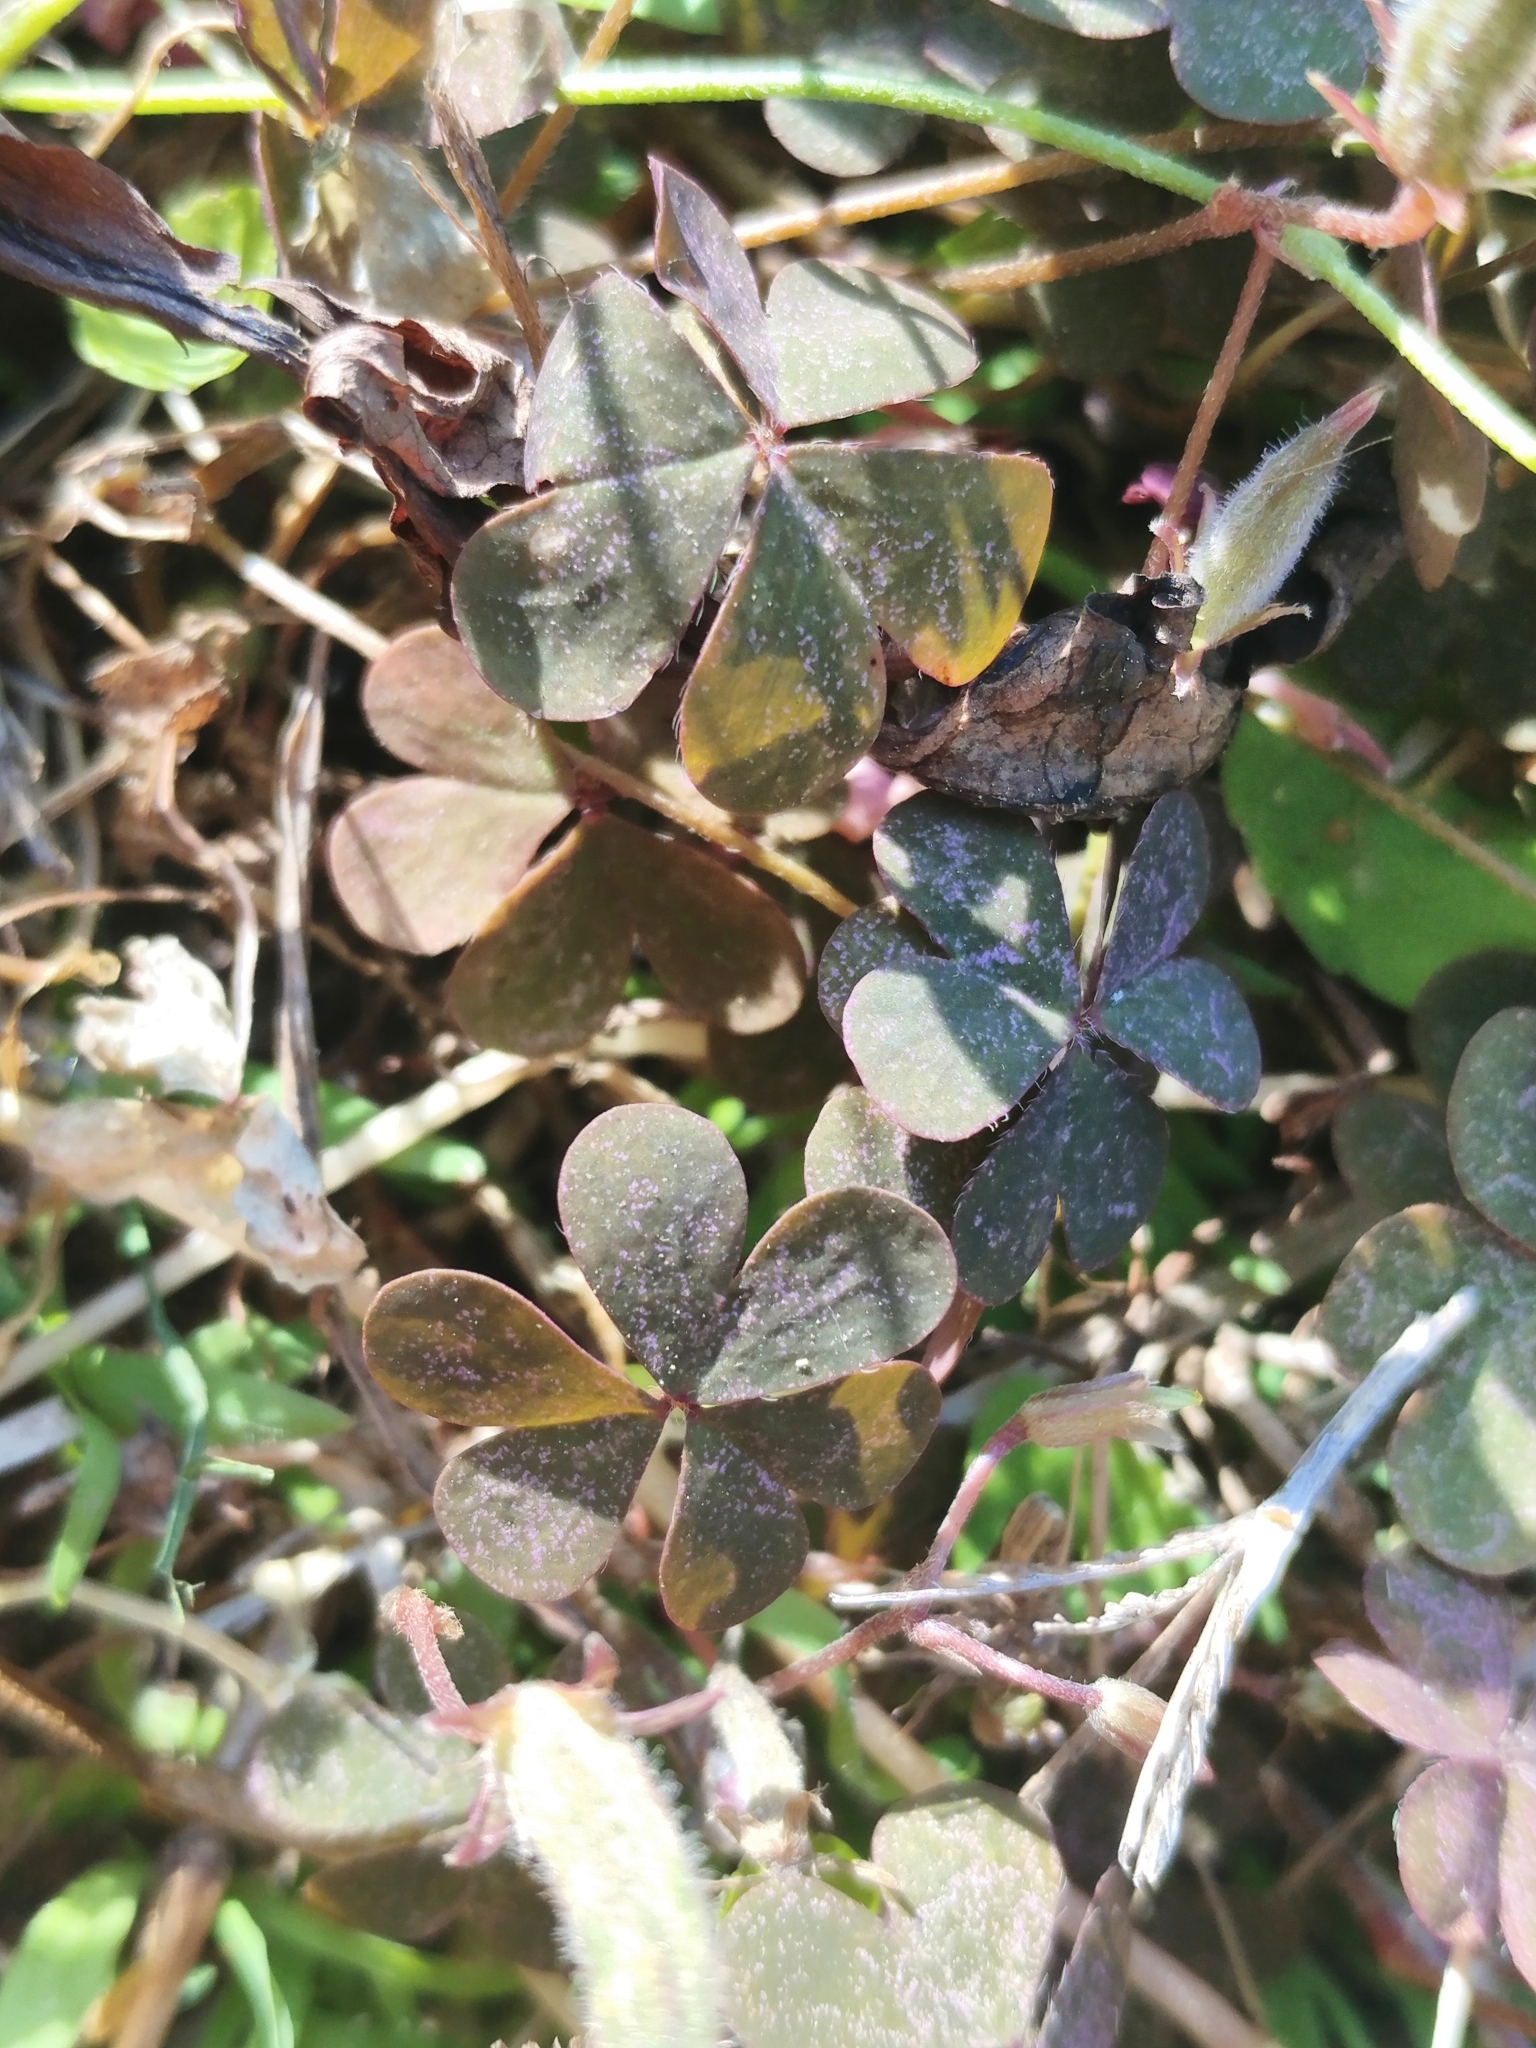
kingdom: Plantae
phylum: Tracheophyta
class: Magnoliopsida
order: Oxalidales
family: Oxalidaceae
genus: Oxalis
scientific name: Oxalis corniculata
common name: Procumbent yellow-sorrel
